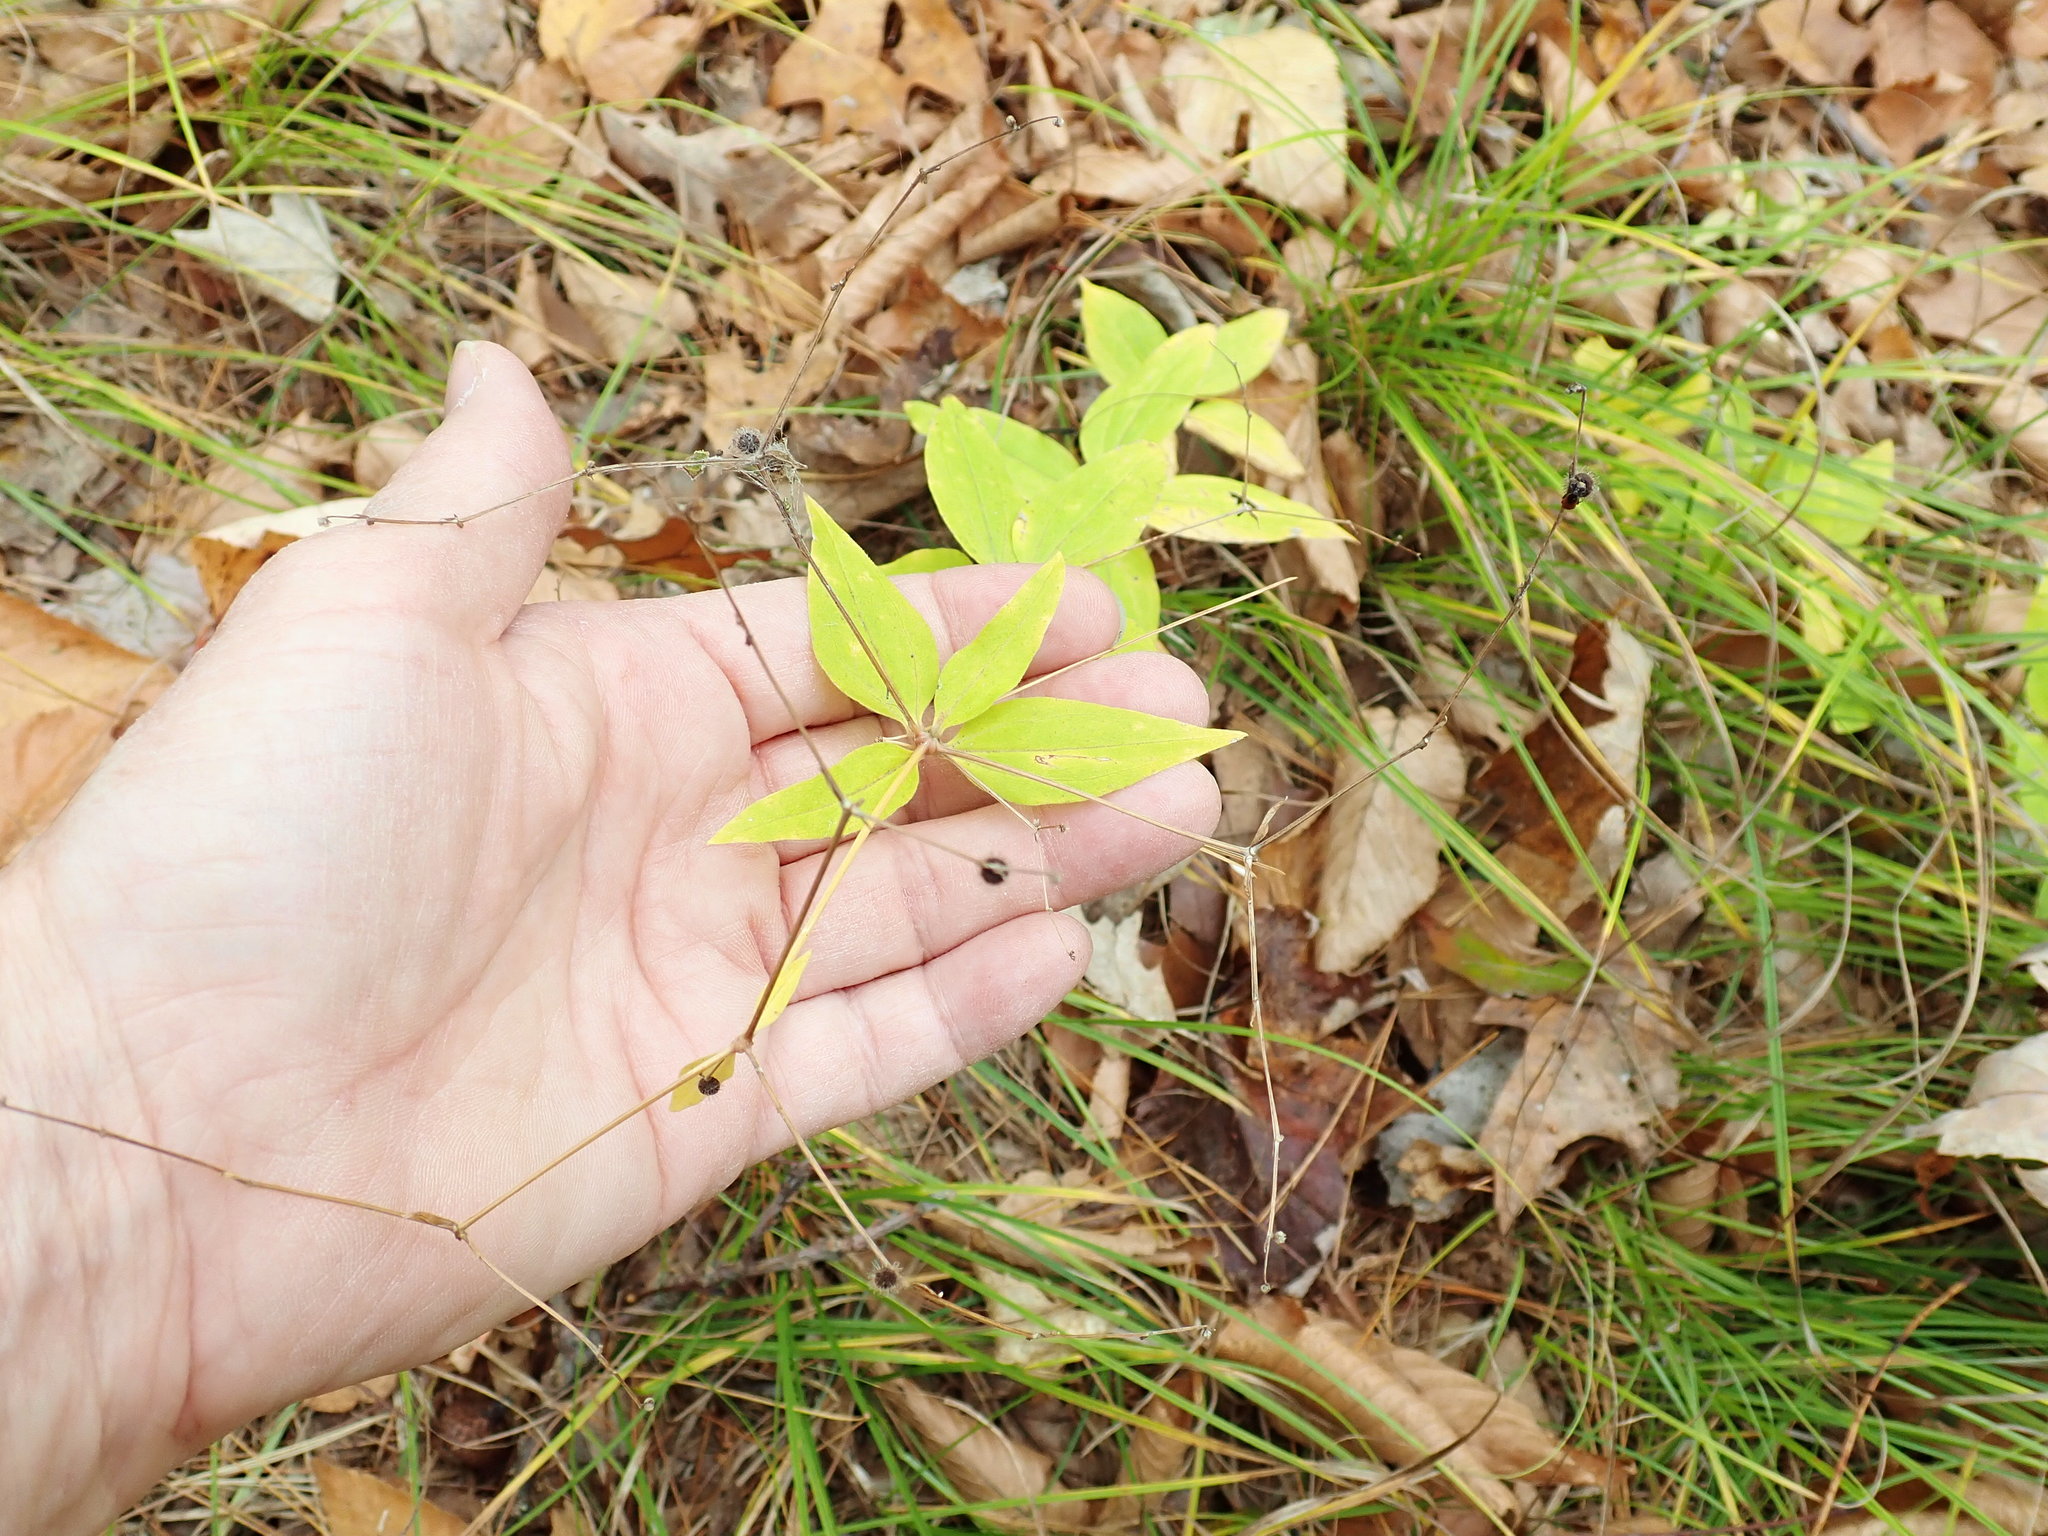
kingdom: Plantae
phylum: Tracheophyta
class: Magnoliopsida
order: Gentianales
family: Rubiaceae
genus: Galium
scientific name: Galium lanceolatum
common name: Lance-leaved wild licorice
